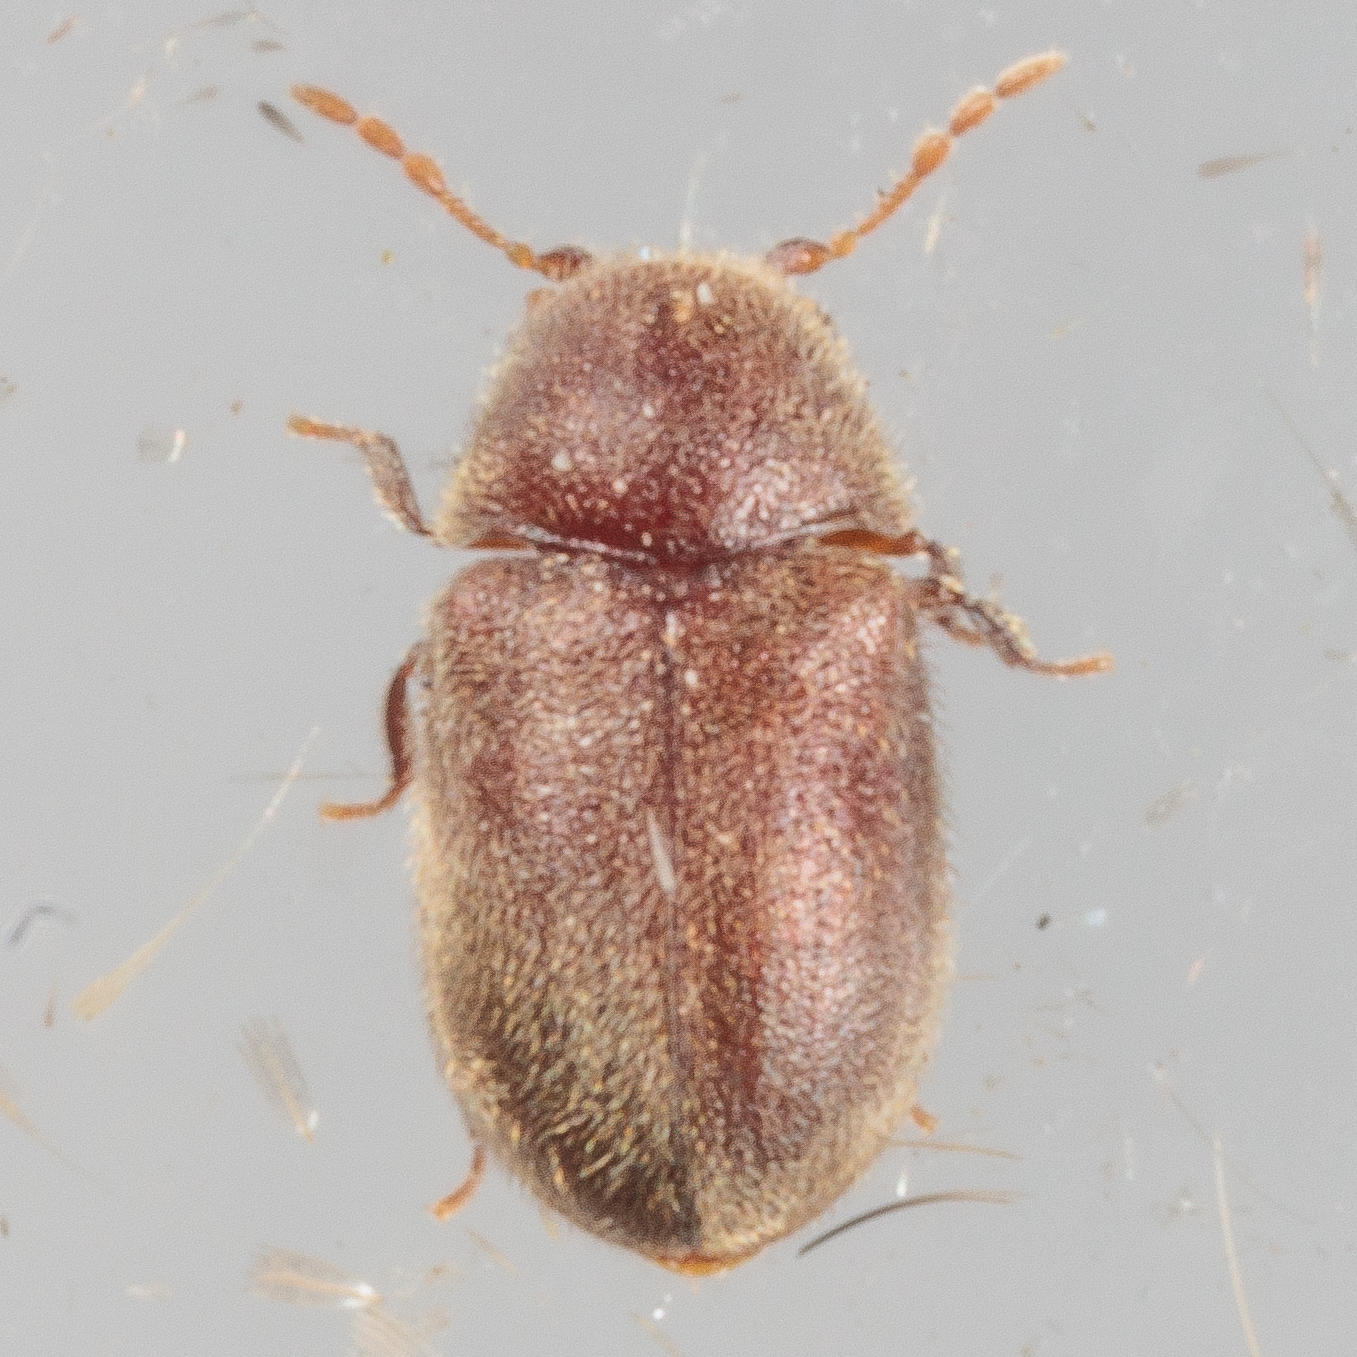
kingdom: Animalia
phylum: Arthropoda
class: Insecta
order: Coleoptera
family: Anobiidae
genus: Protheca
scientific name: Protheca hispida
